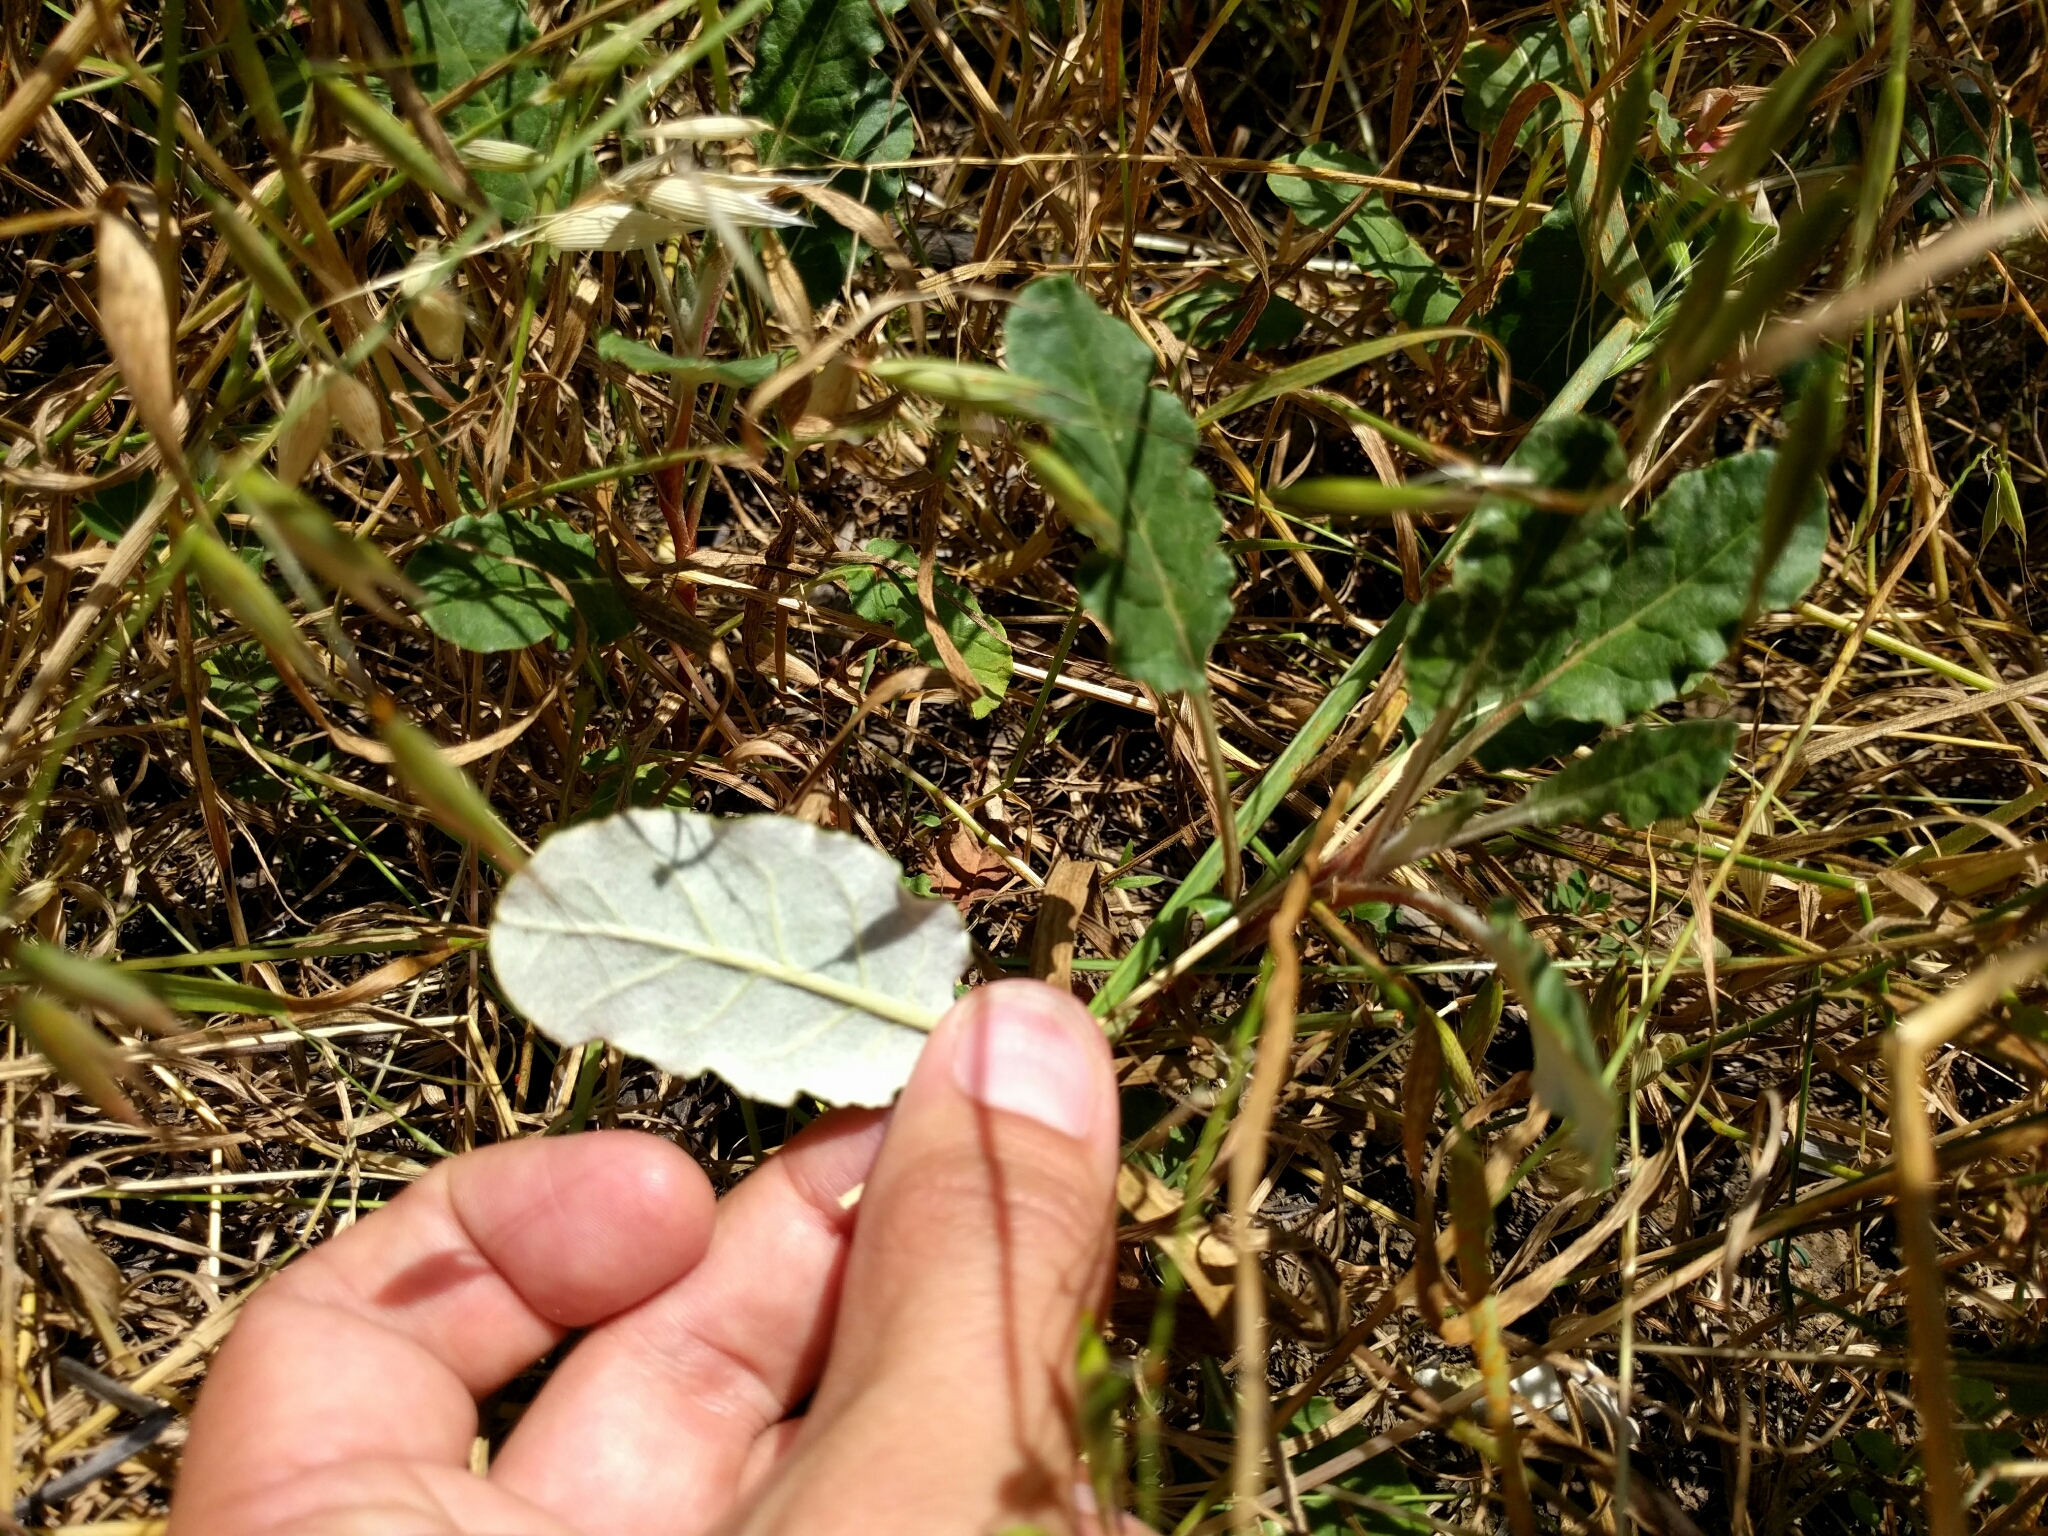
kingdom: Plantae
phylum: Tracheophyta
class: Magnoliopsida
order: Caryophyllales
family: Polygonaceae
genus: Eriogonum
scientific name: Eriogonum nudum
